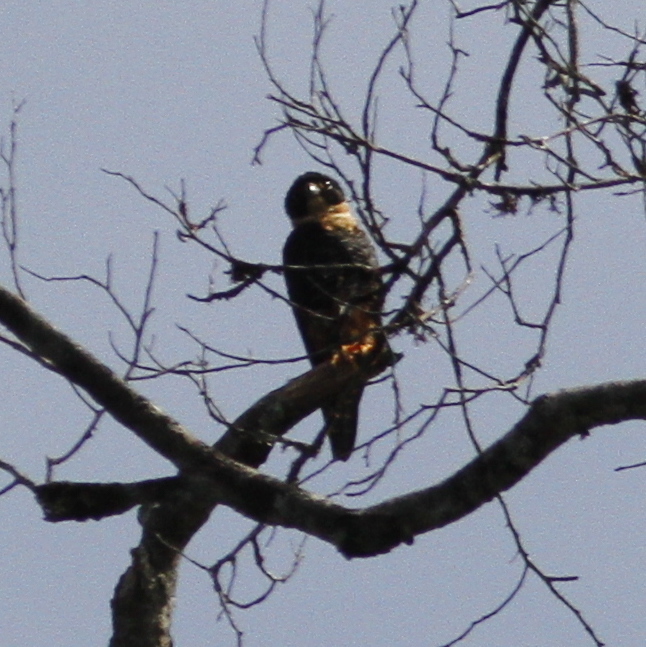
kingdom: Animalia
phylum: Chordata
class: Aves
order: Falconiformes
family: Falconidae
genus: Falco
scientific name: Falco rufigularis
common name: Bat falcon
